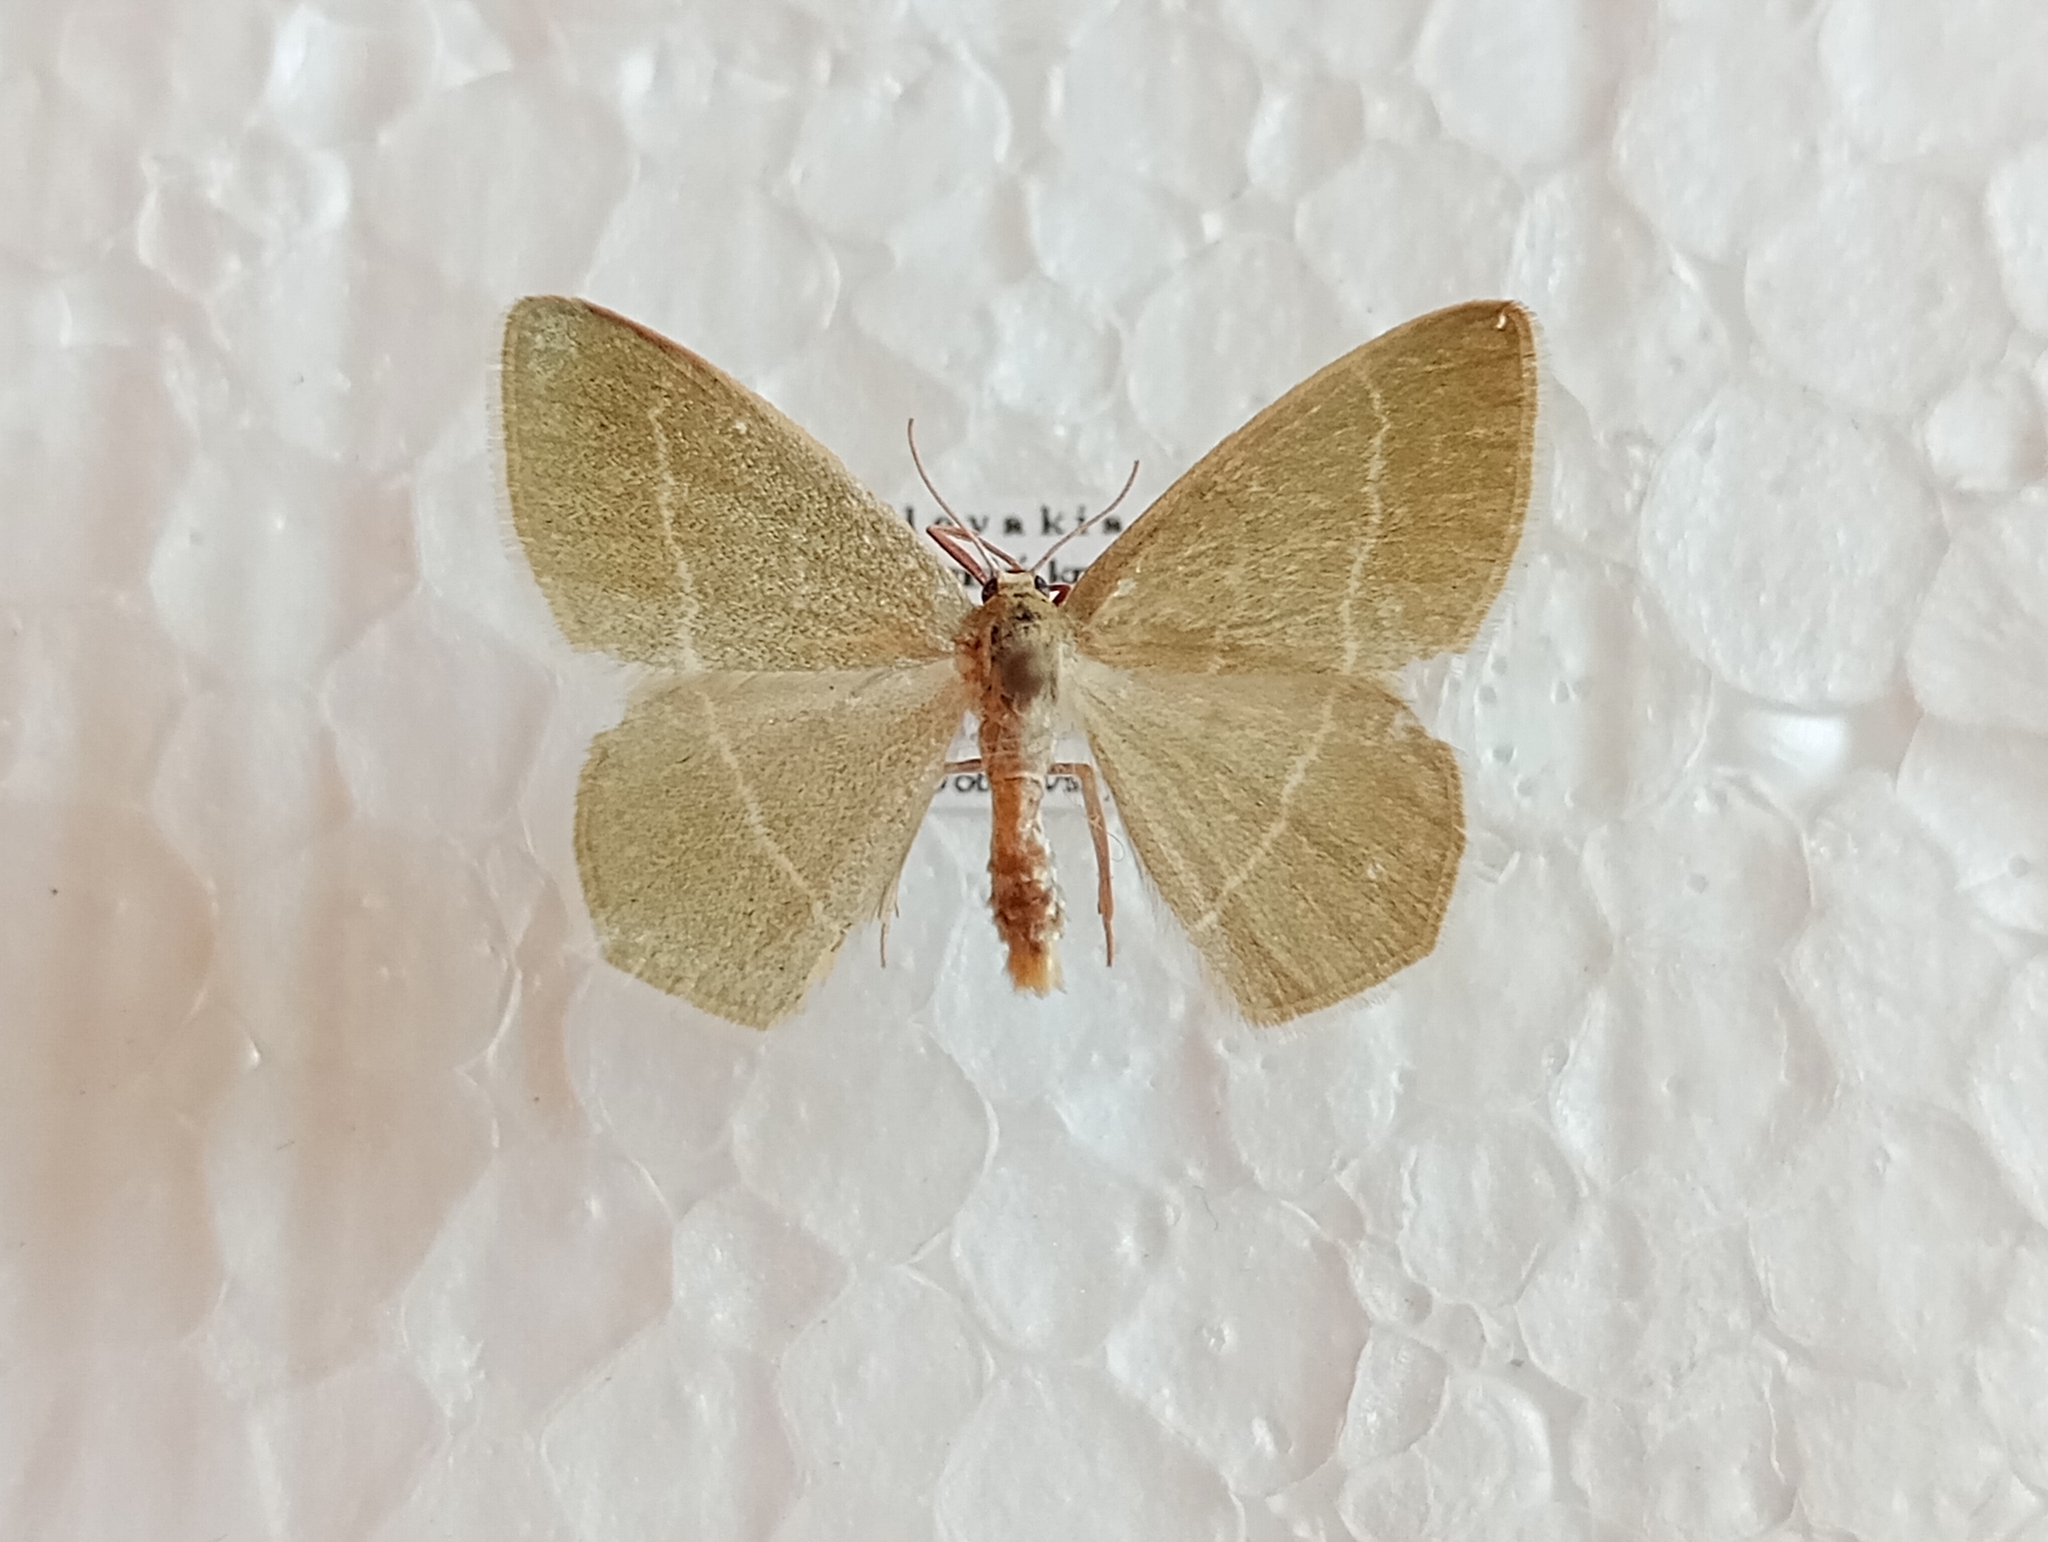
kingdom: Animalia
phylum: Arthropoda
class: Insecta
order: Lepidoptera
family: Geometridae
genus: Chlorissa
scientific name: Chlorissa cloraria
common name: Southern grass emerald
